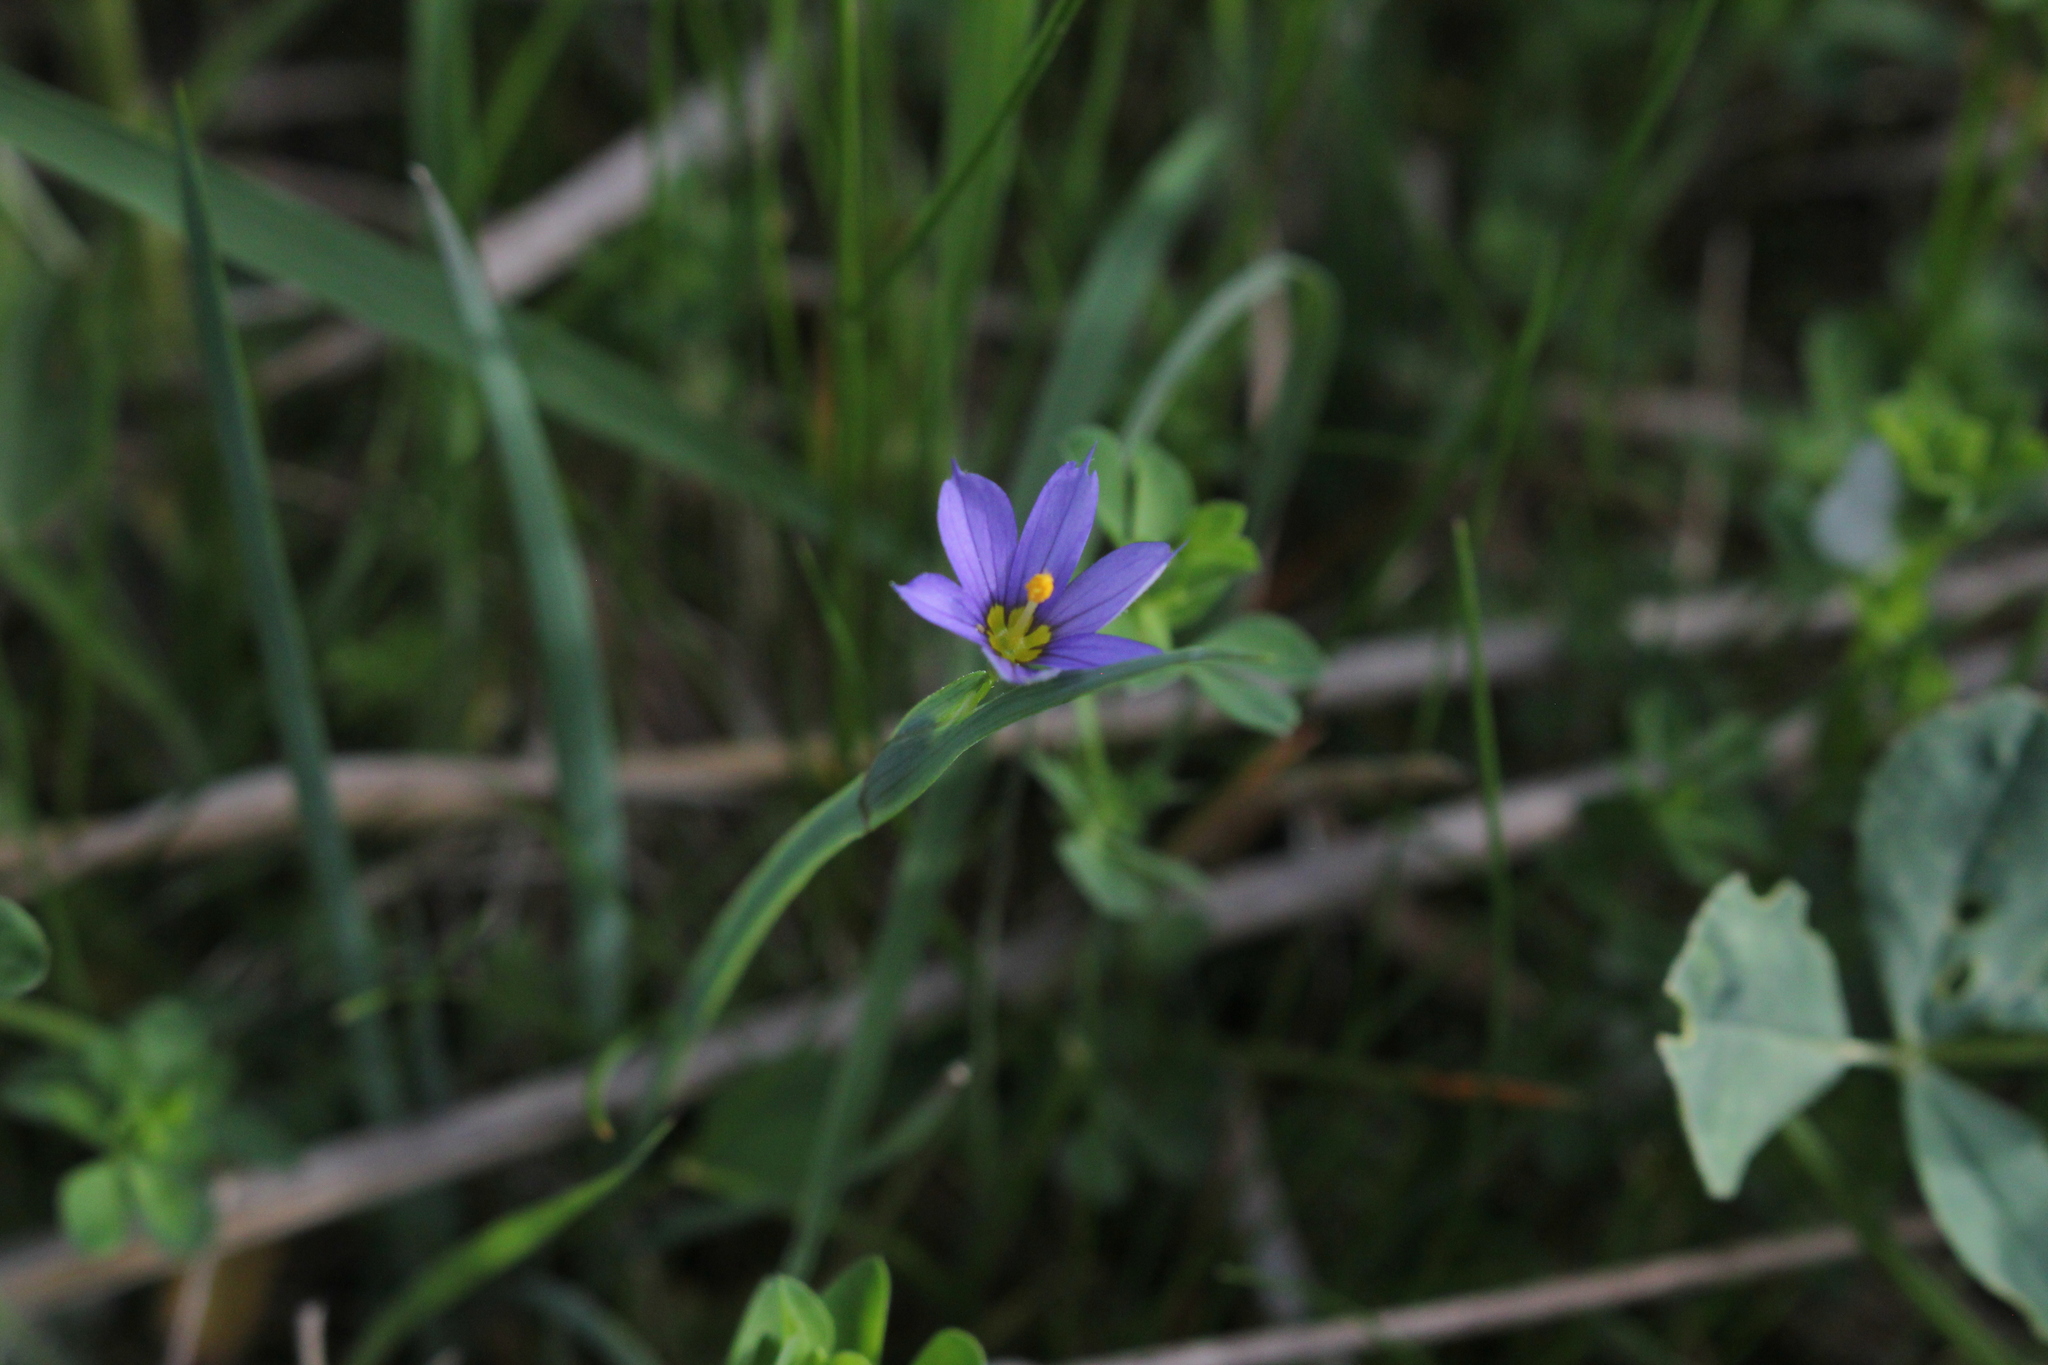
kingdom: Plantae
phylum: Tracheophyta
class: Liliopsida
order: Asparagales
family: Iridaceae
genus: Sisyrinchium
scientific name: Sisyrinchium montanum
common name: American blue-eyed-grass
